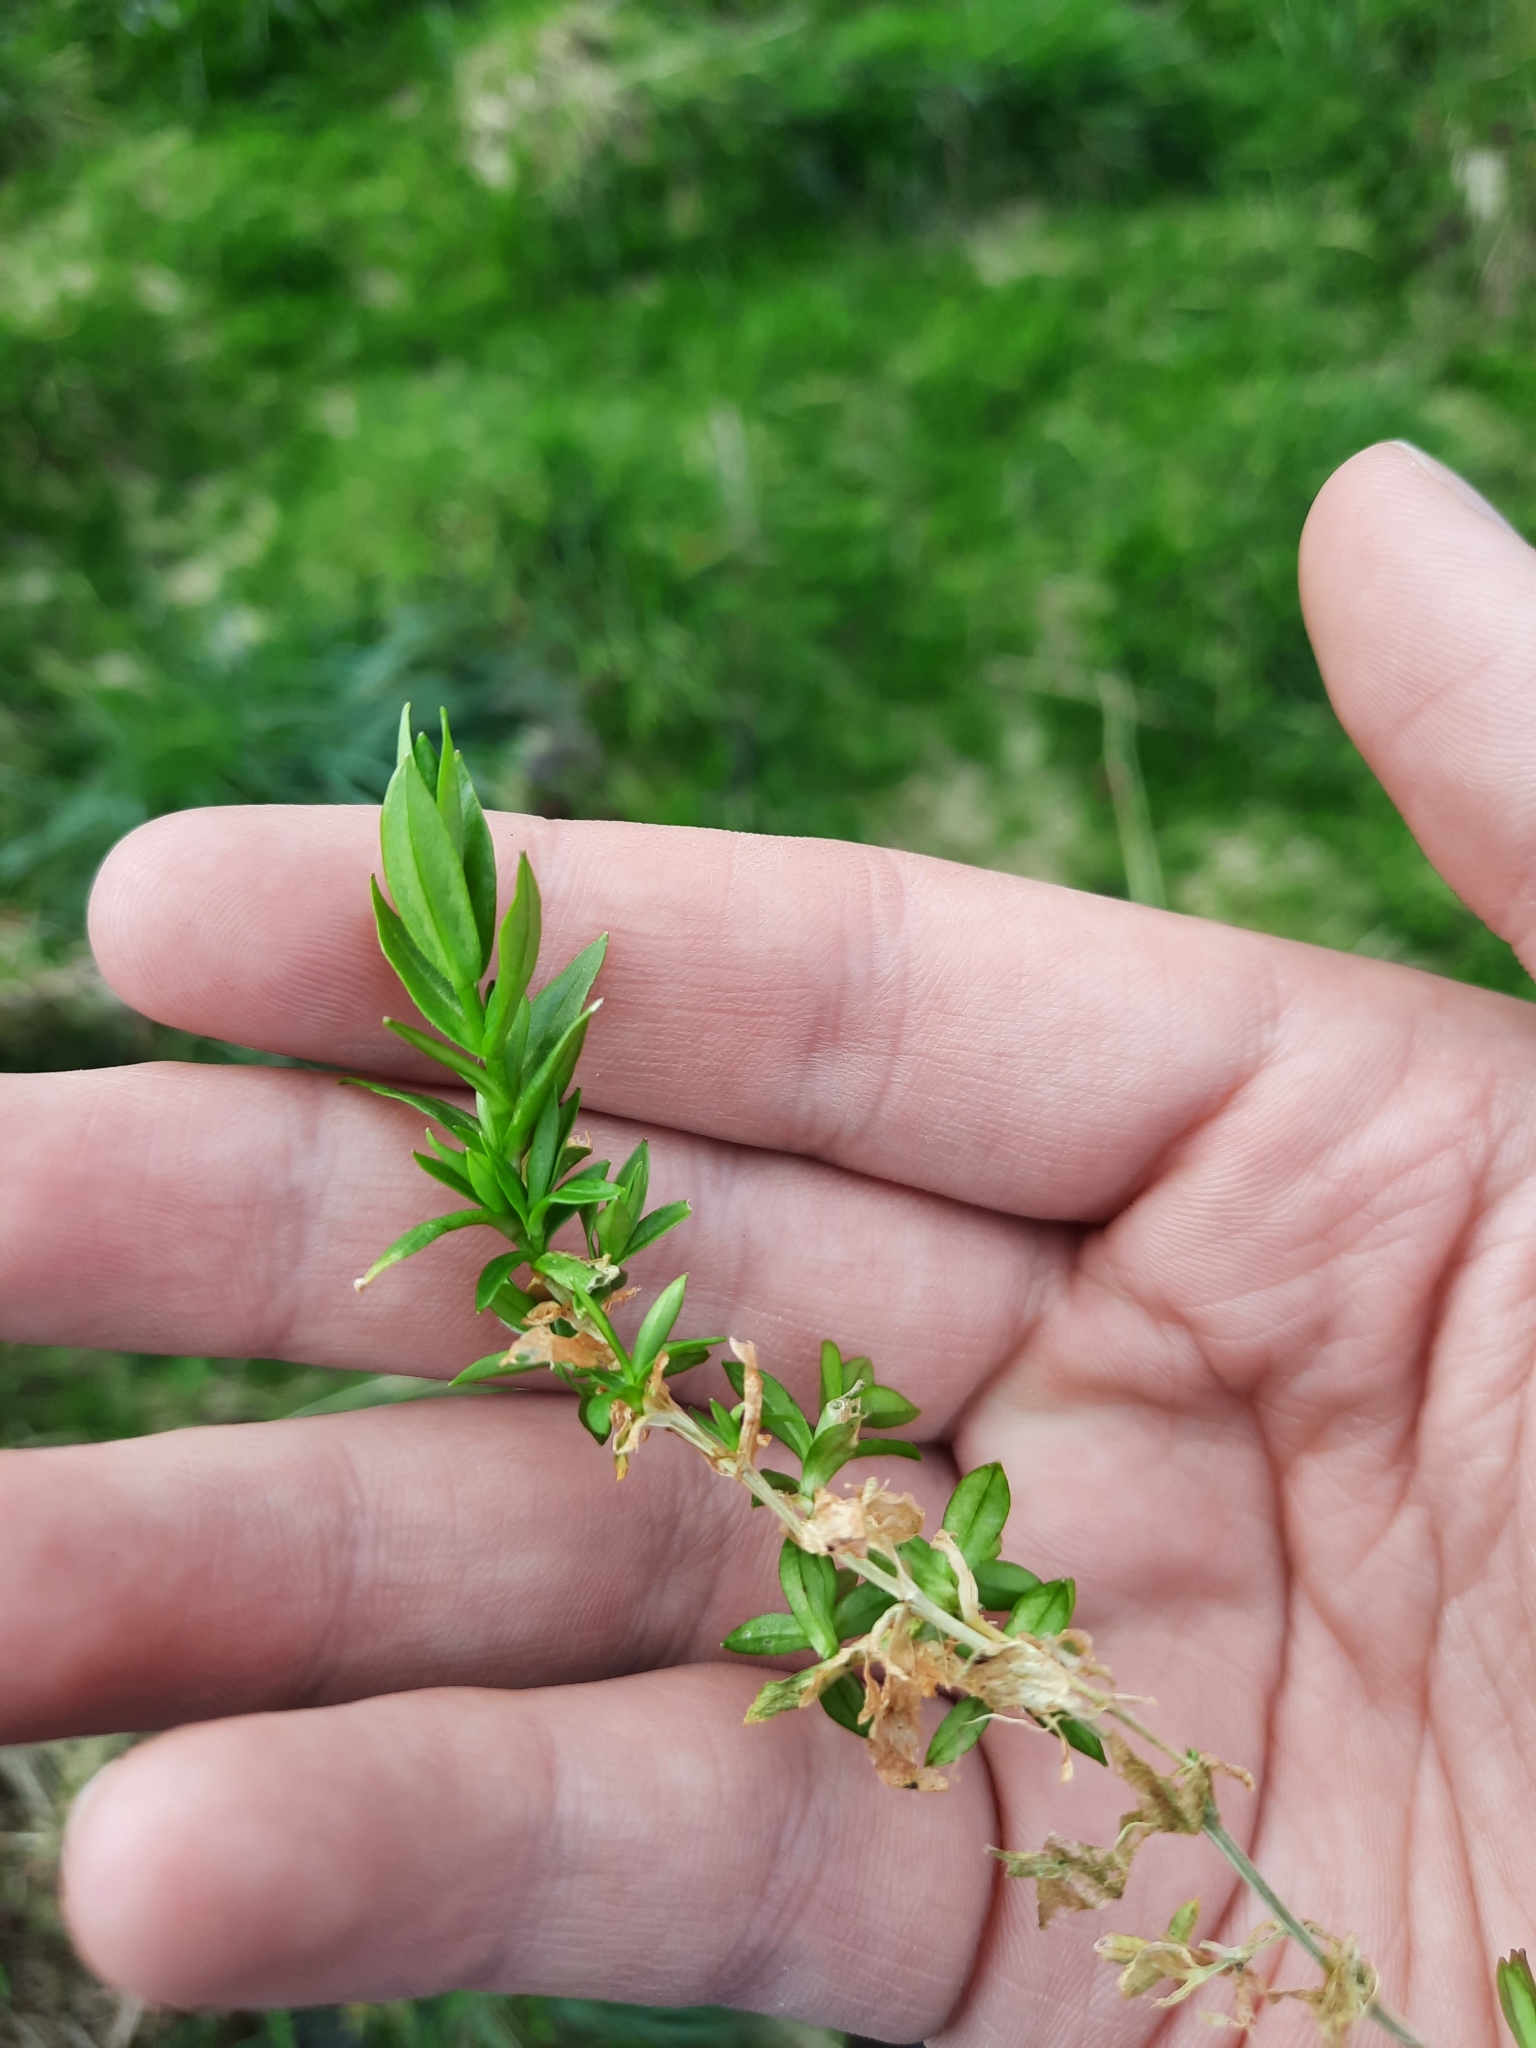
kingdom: Plantae
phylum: Tracheophyta
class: Magnoliopsida
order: Caryophyllales
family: Caryophyllaceae
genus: Stellaria
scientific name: Stellaria alsine
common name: Bog stitchwort
